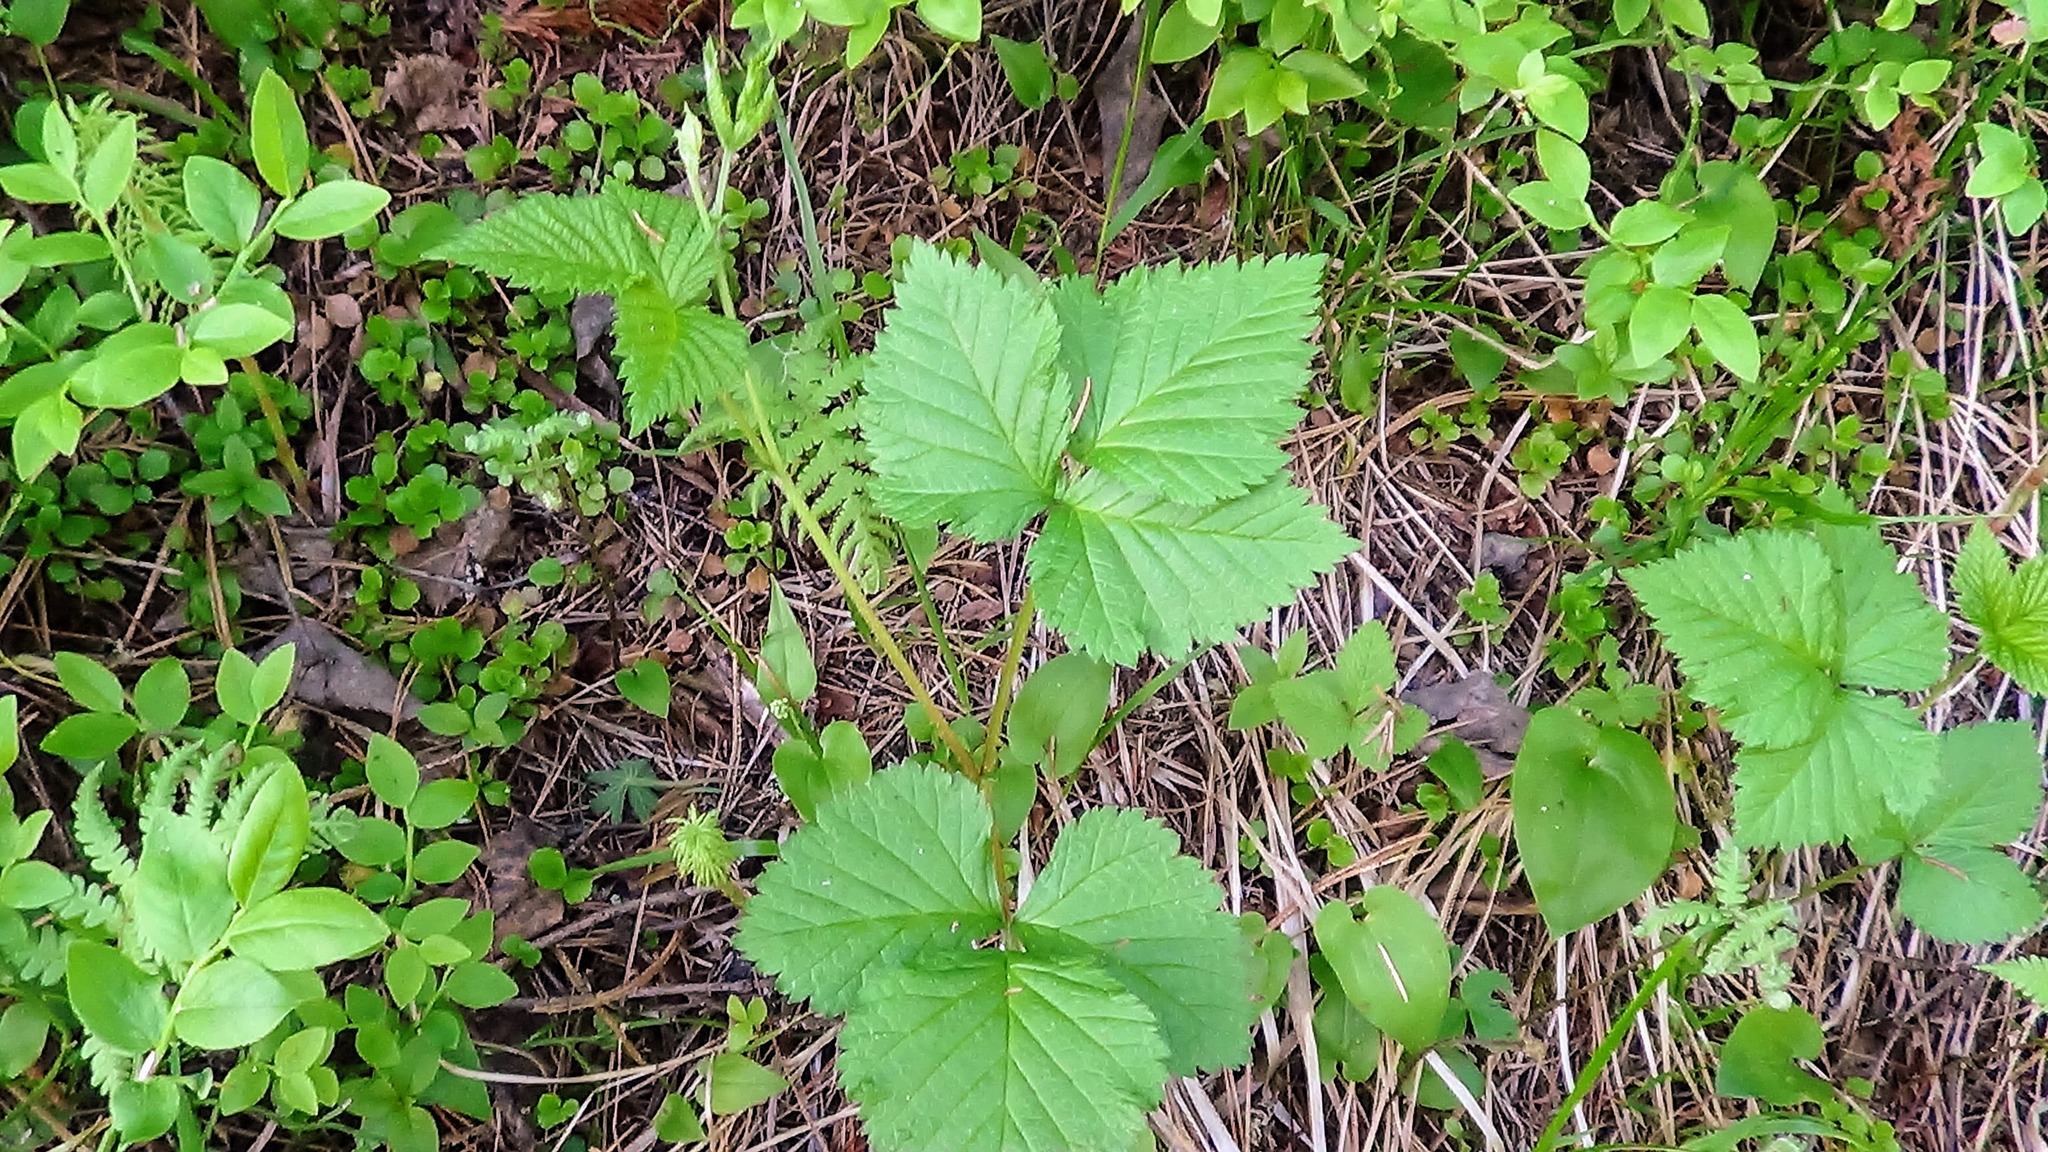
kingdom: Plantae
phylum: Tracheophyta
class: Magnoliopsida
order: Rosales
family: Rosaceae
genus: Rubus
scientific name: Rubus saxatilis
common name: Stone bramble
